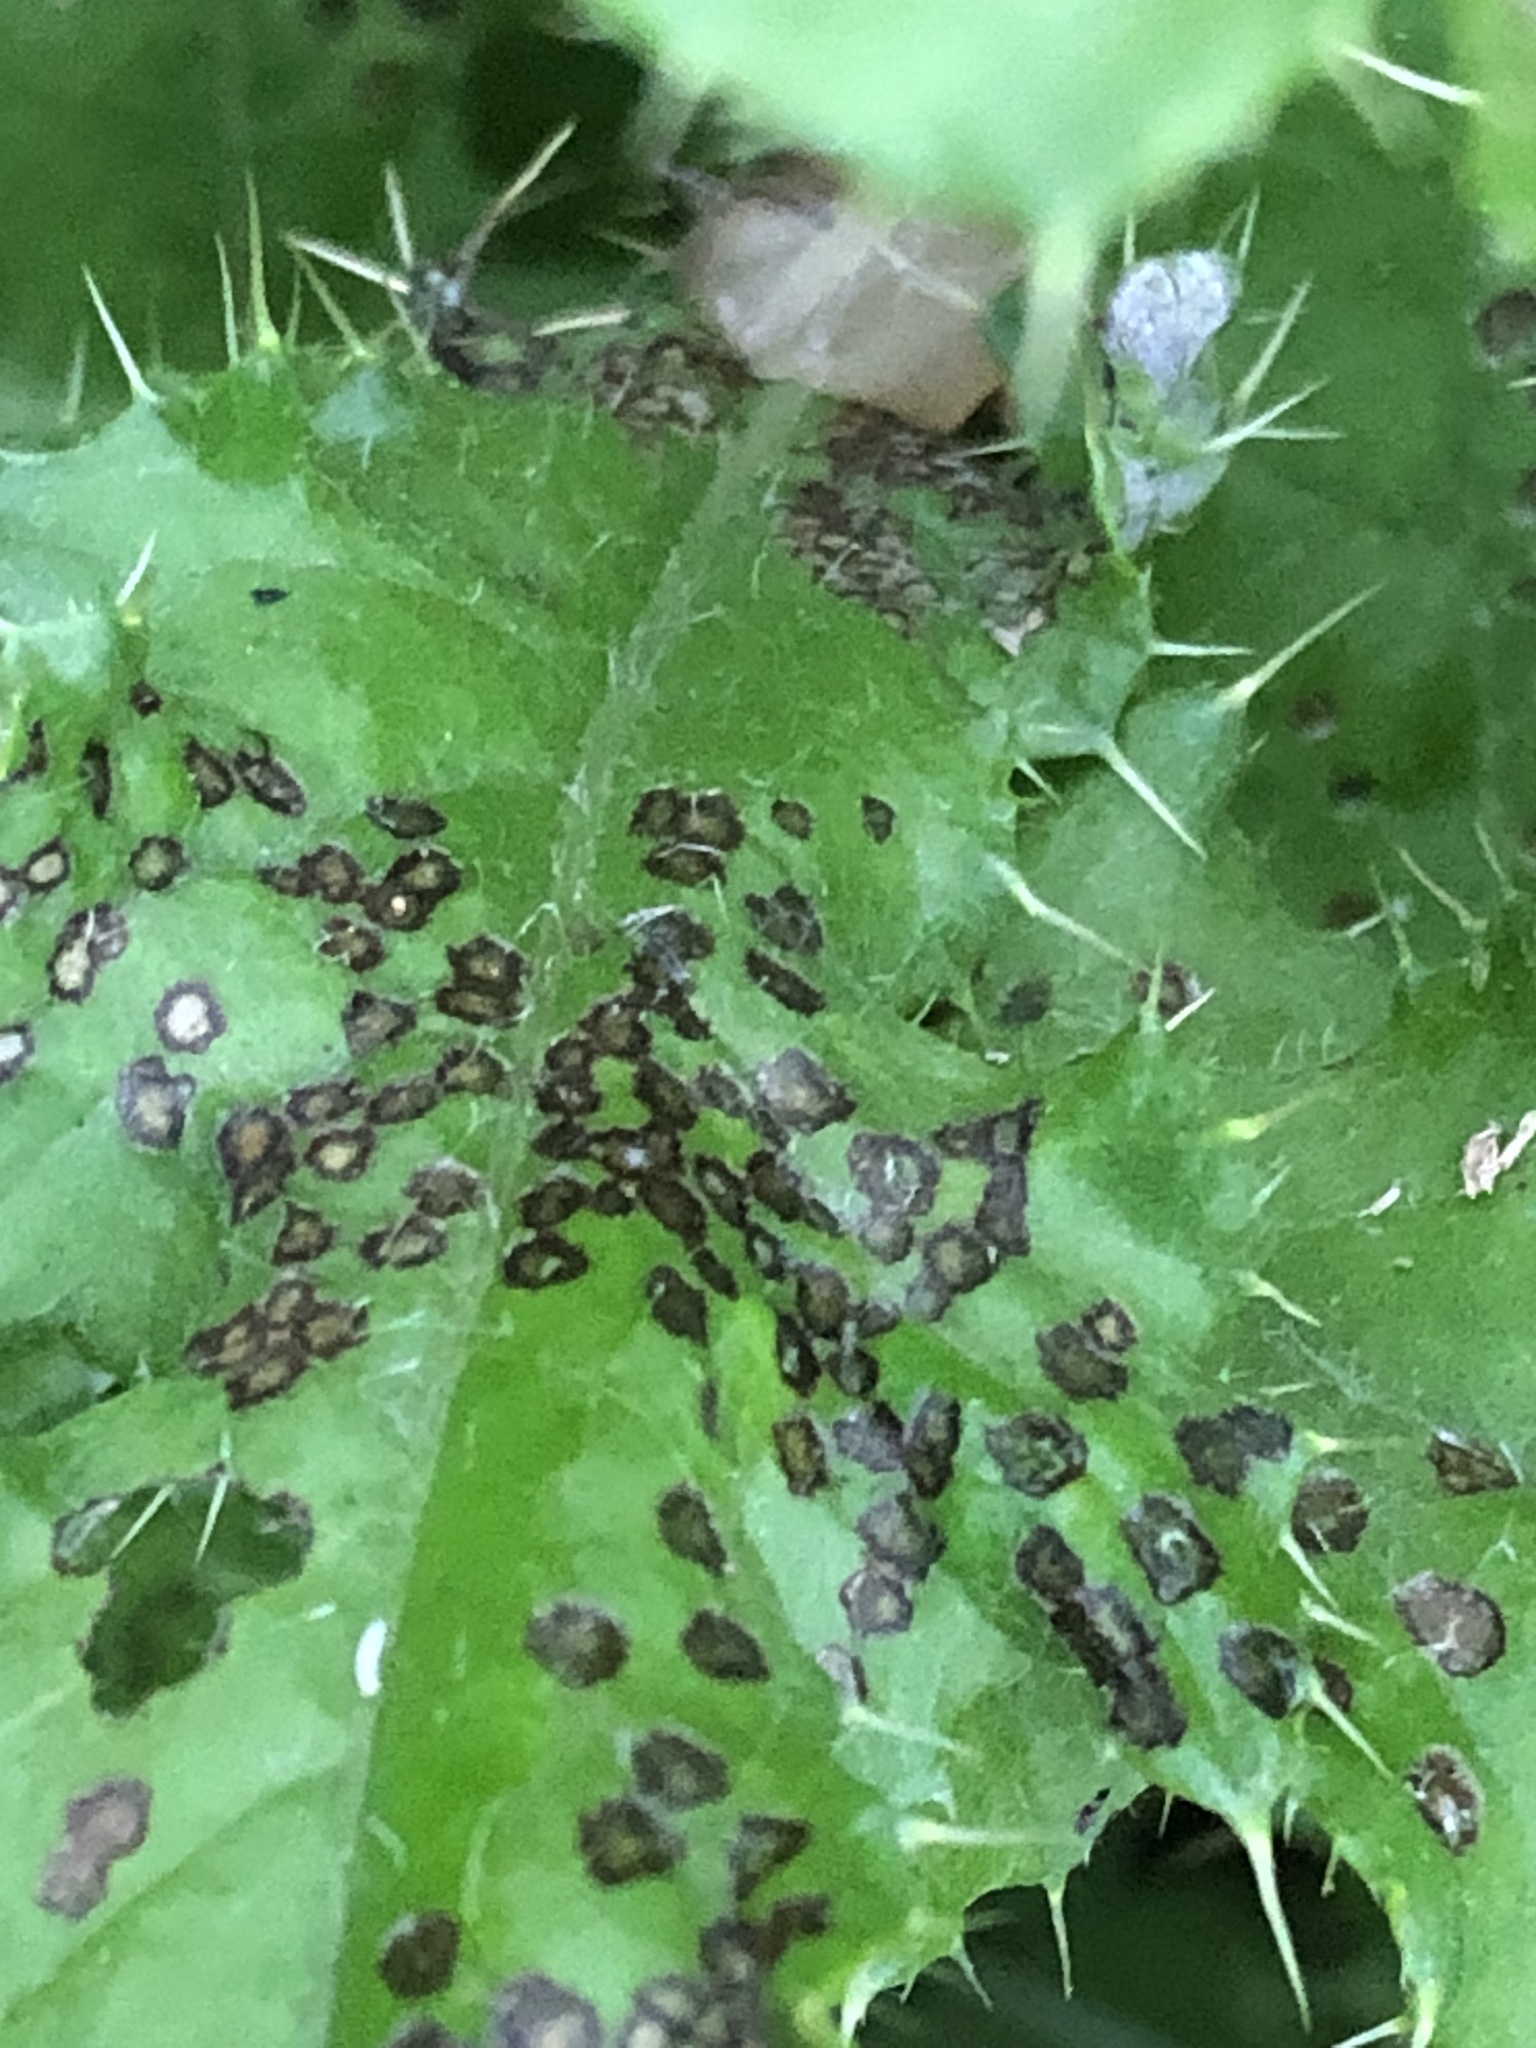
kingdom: Animalia
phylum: Arthropoda
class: Insecta
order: Hemiptera
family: Miridae
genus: Poecilocapsus
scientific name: Poecilocapsus lineatus
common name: Four-lined plant bug
